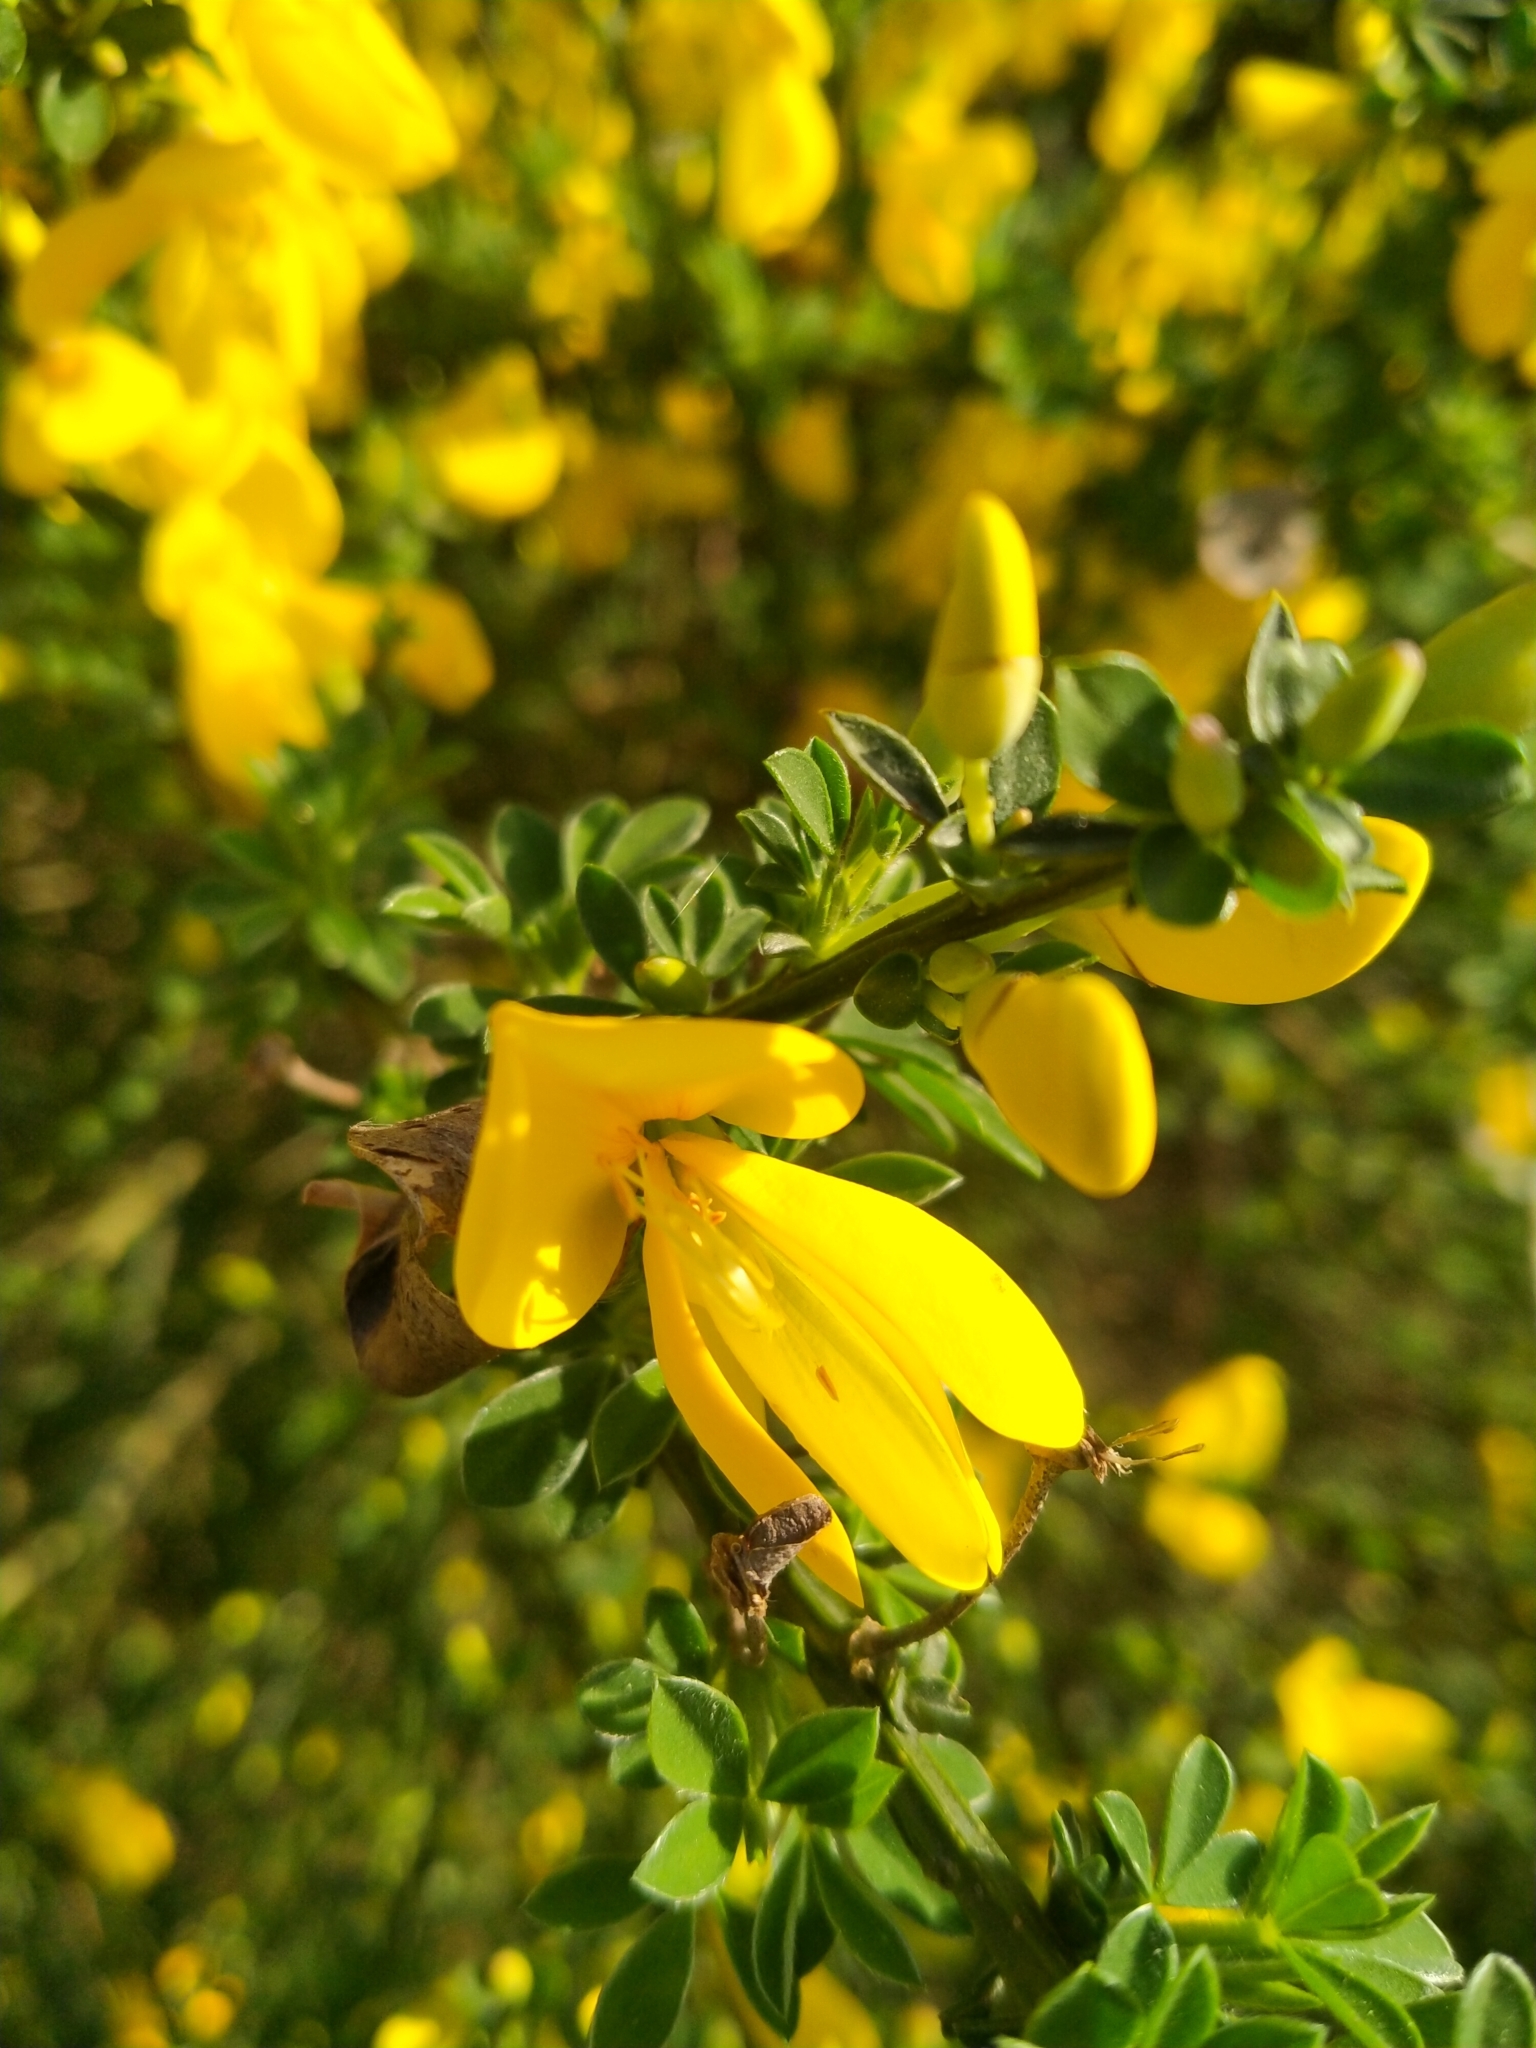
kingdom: Plantae
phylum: Tracheophyta
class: Magnoliopsida
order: Fabales
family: Fabaceae
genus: Cytisus
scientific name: Cytisus scoparius
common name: Scotch broom
